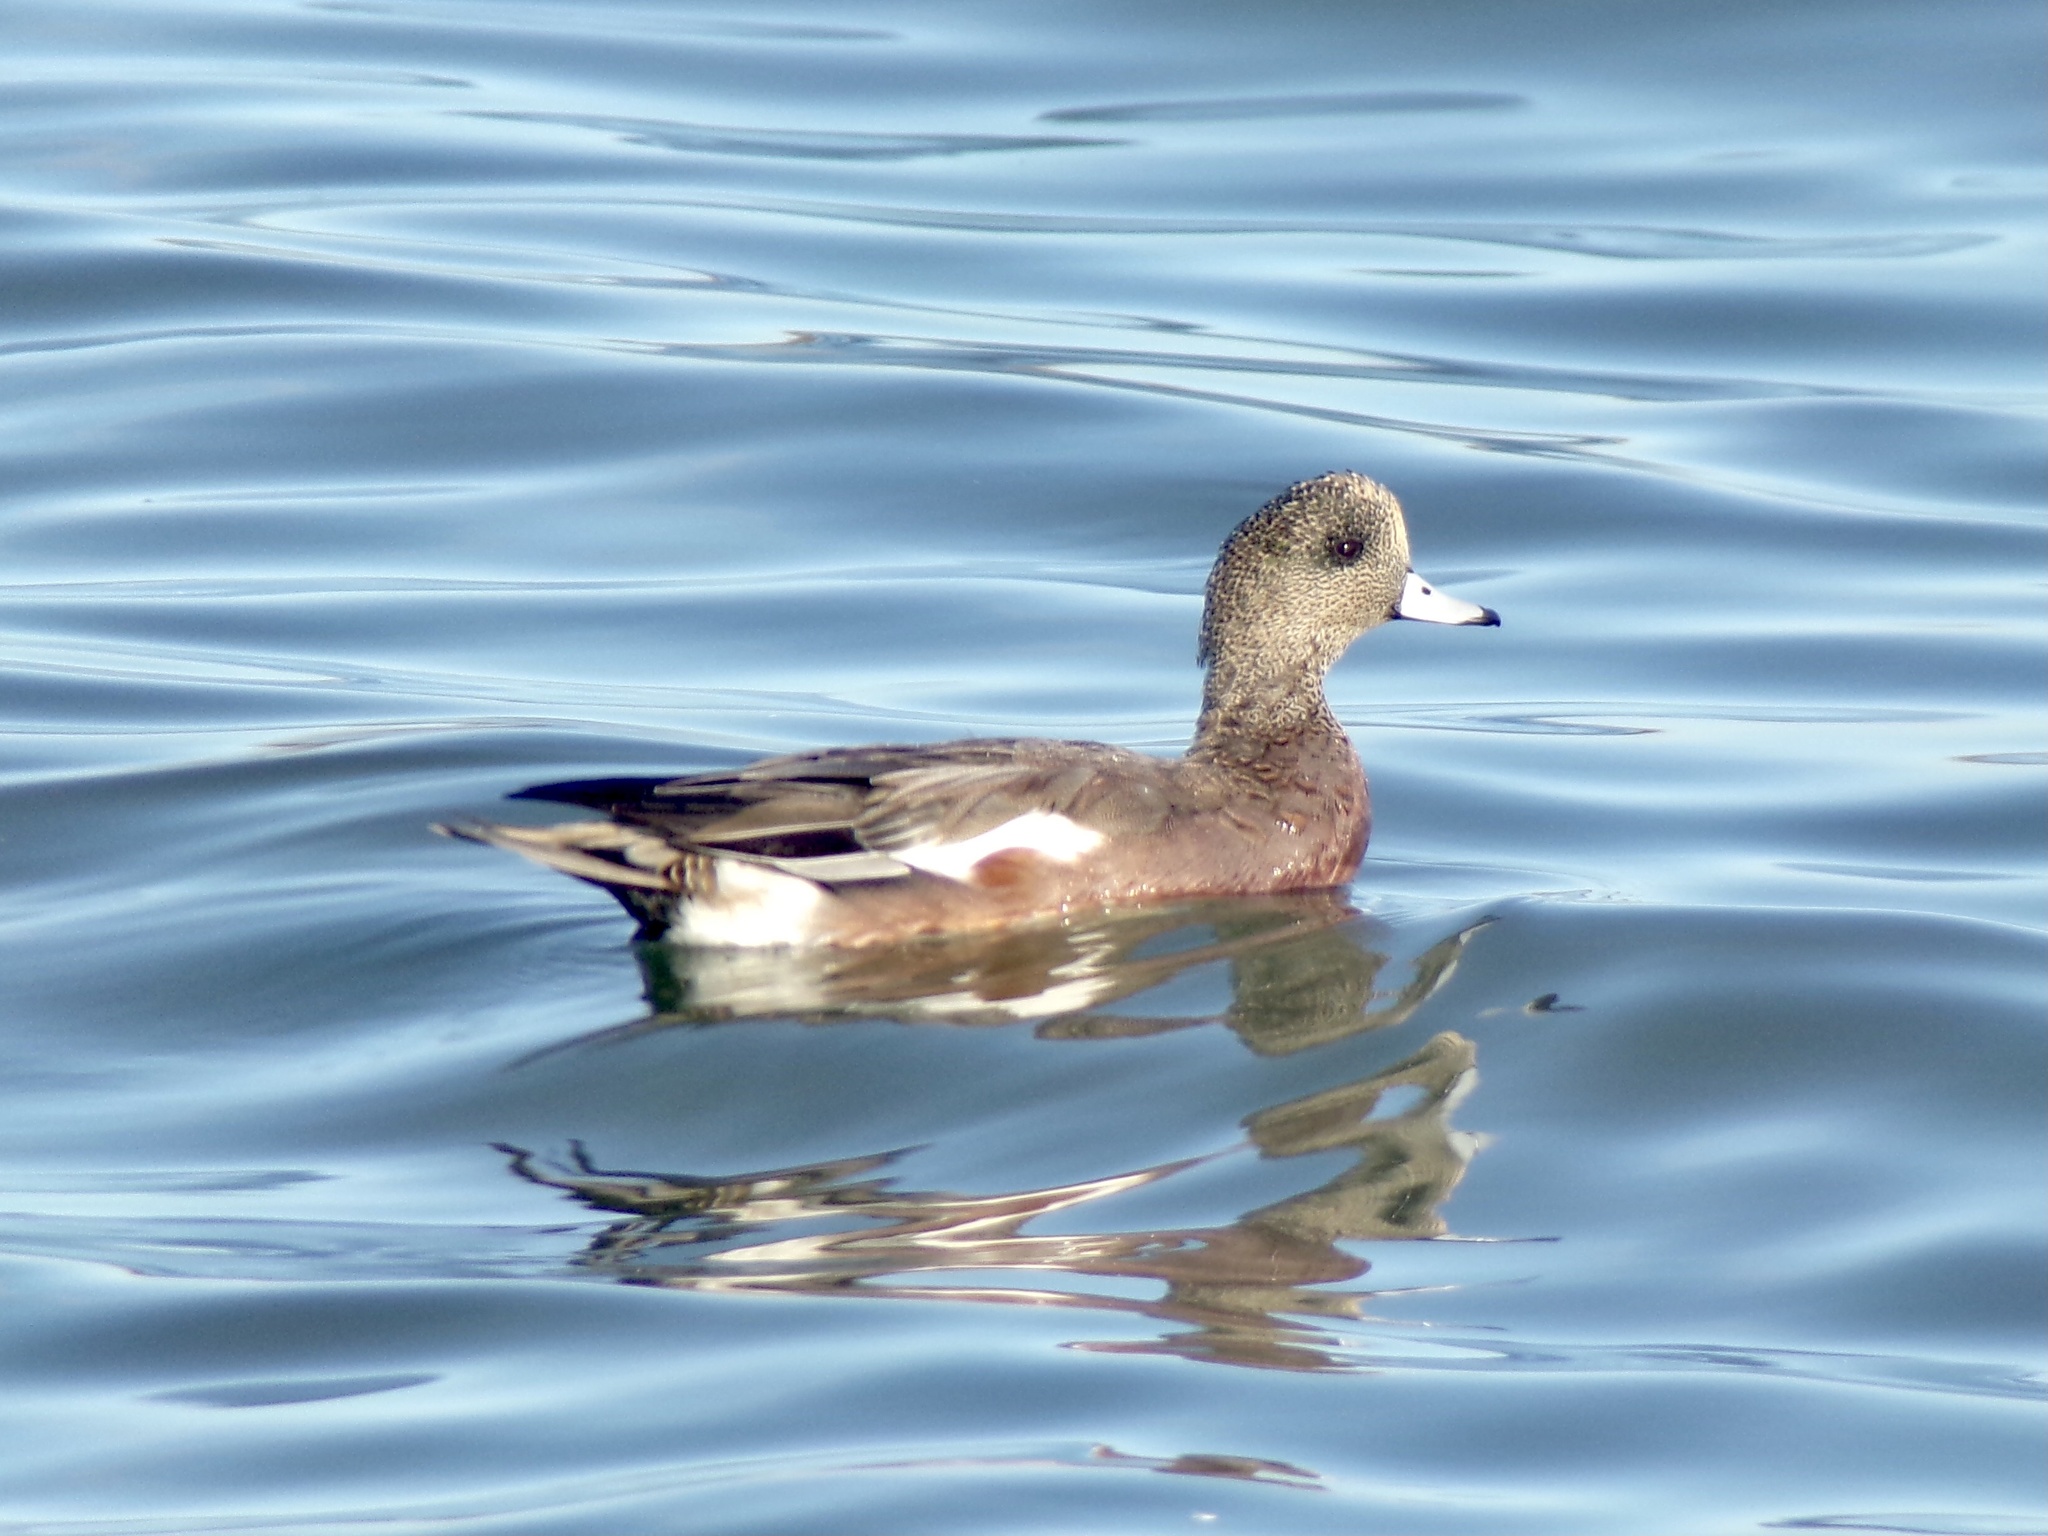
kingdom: Animalia
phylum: Chordata
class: Aves
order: Anseriformes
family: Anatidae
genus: Mareca
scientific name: Mareca americana
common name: American wigeon
